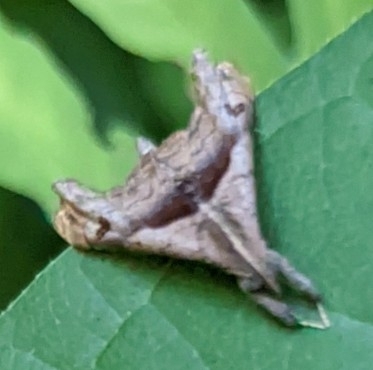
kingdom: Animalia
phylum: Arthropoda
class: Insecta
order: Lepidoptera
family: Erebidae
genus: Palthis
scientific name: Palthis angulalis
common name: Dark-spotted palthis moth
